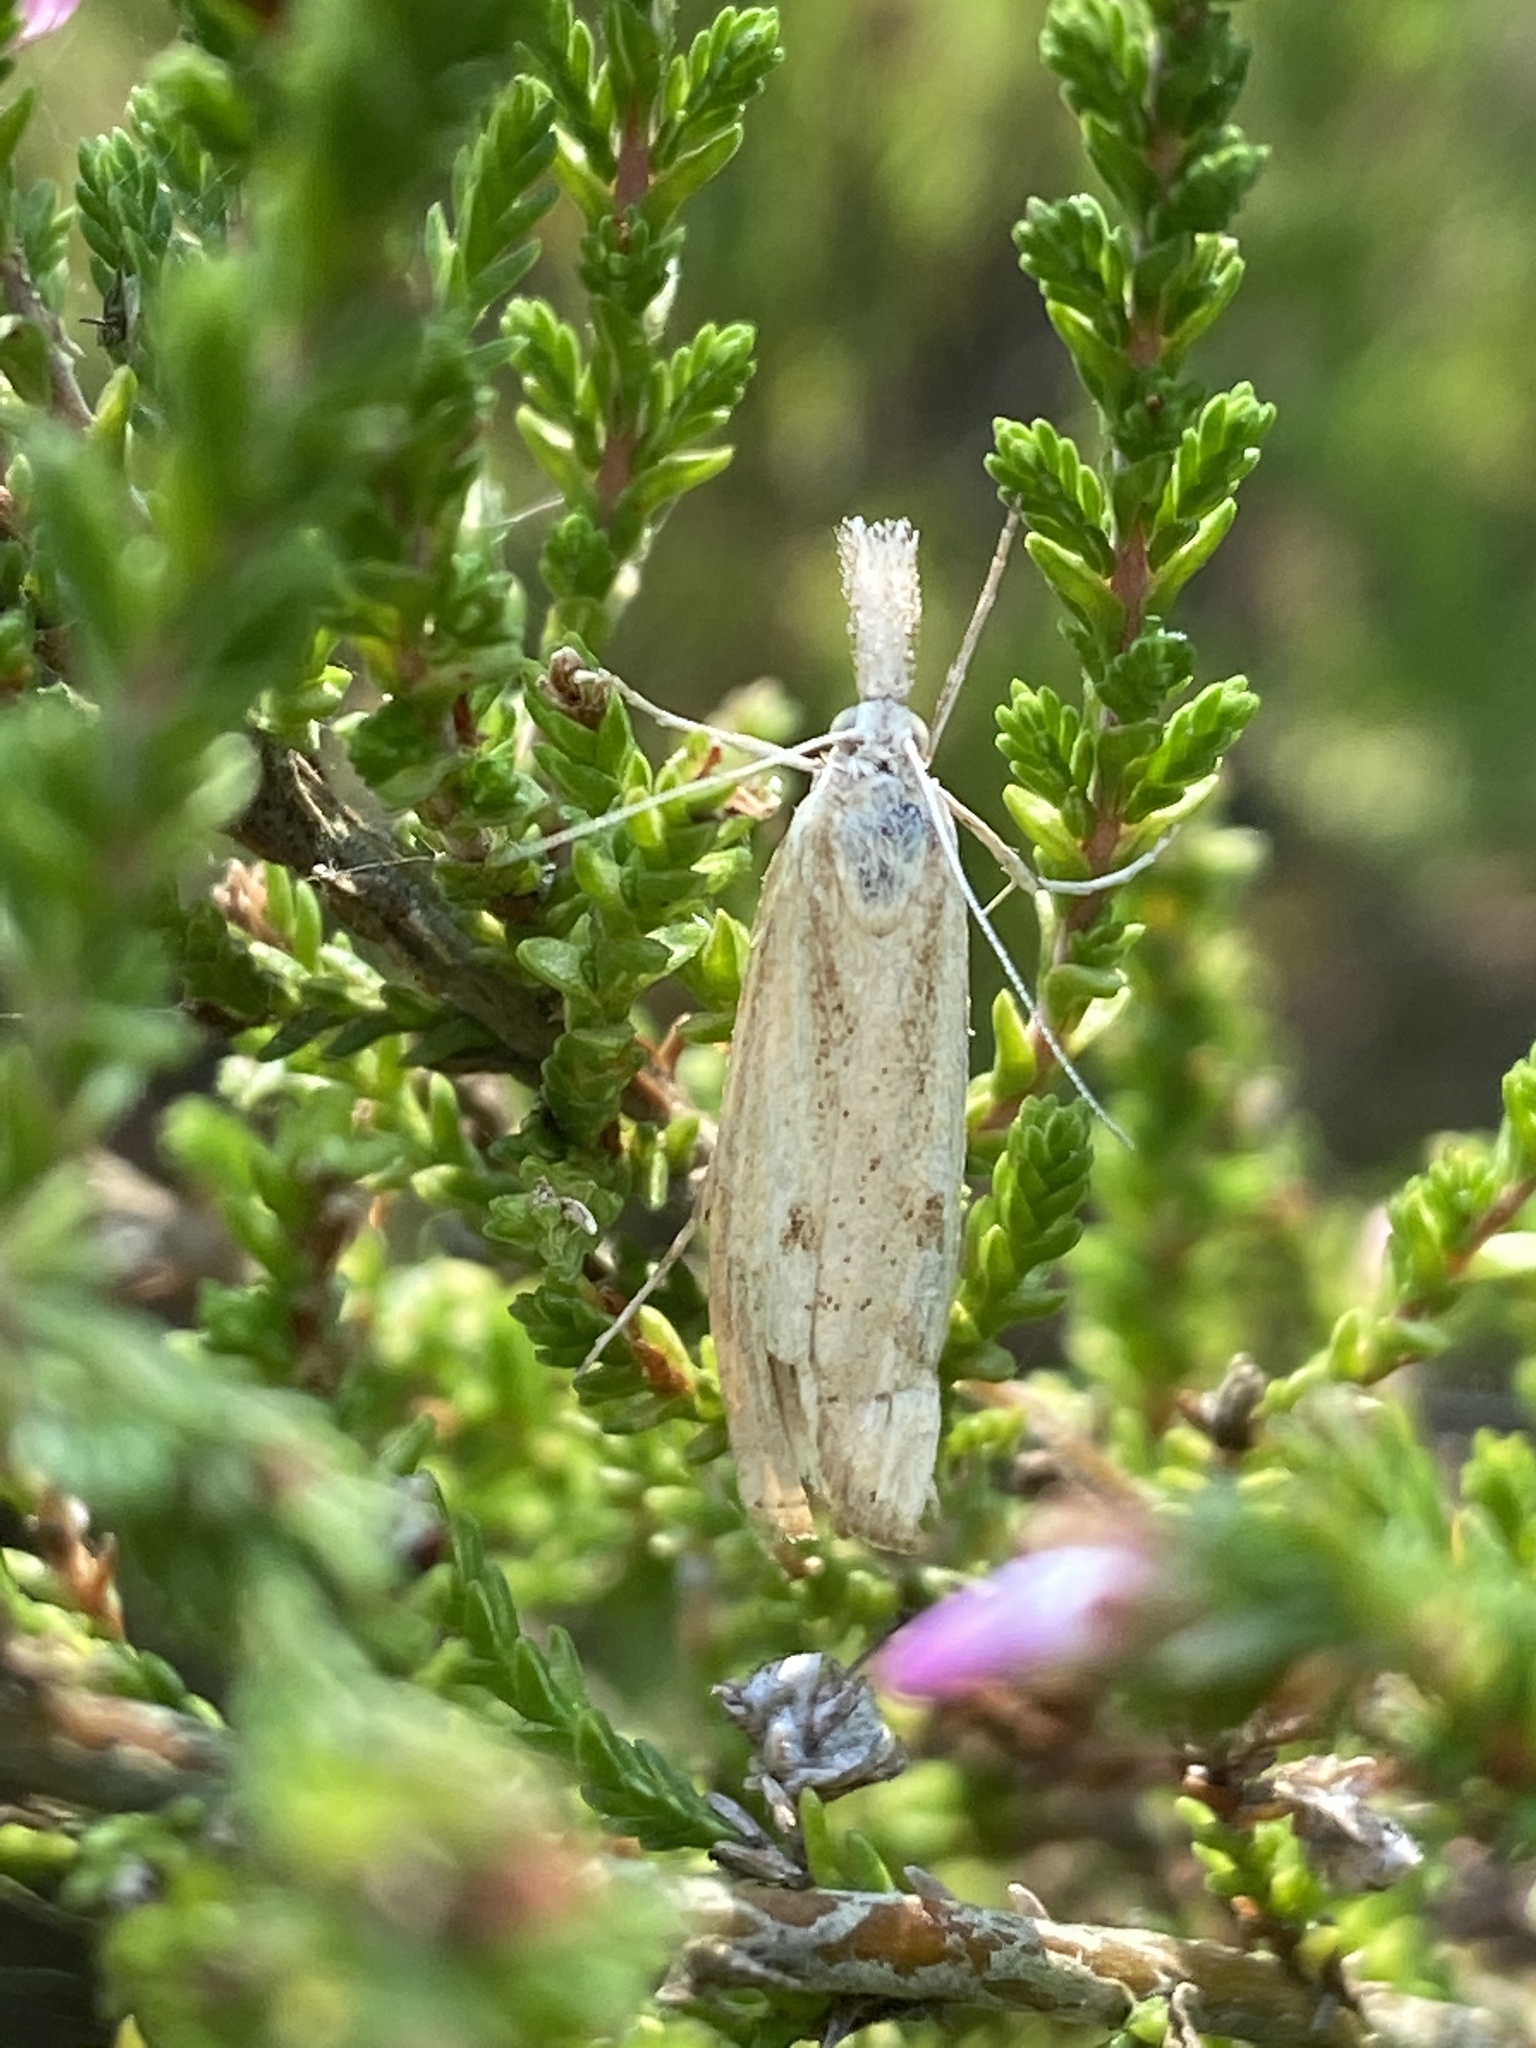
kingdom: Animalia
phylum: Arthropoda
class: Insecta
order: Lepidoptera
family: Crambidae
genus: Agriphila
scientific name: Agriphila inquinatella
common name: Barred grass-veneer
